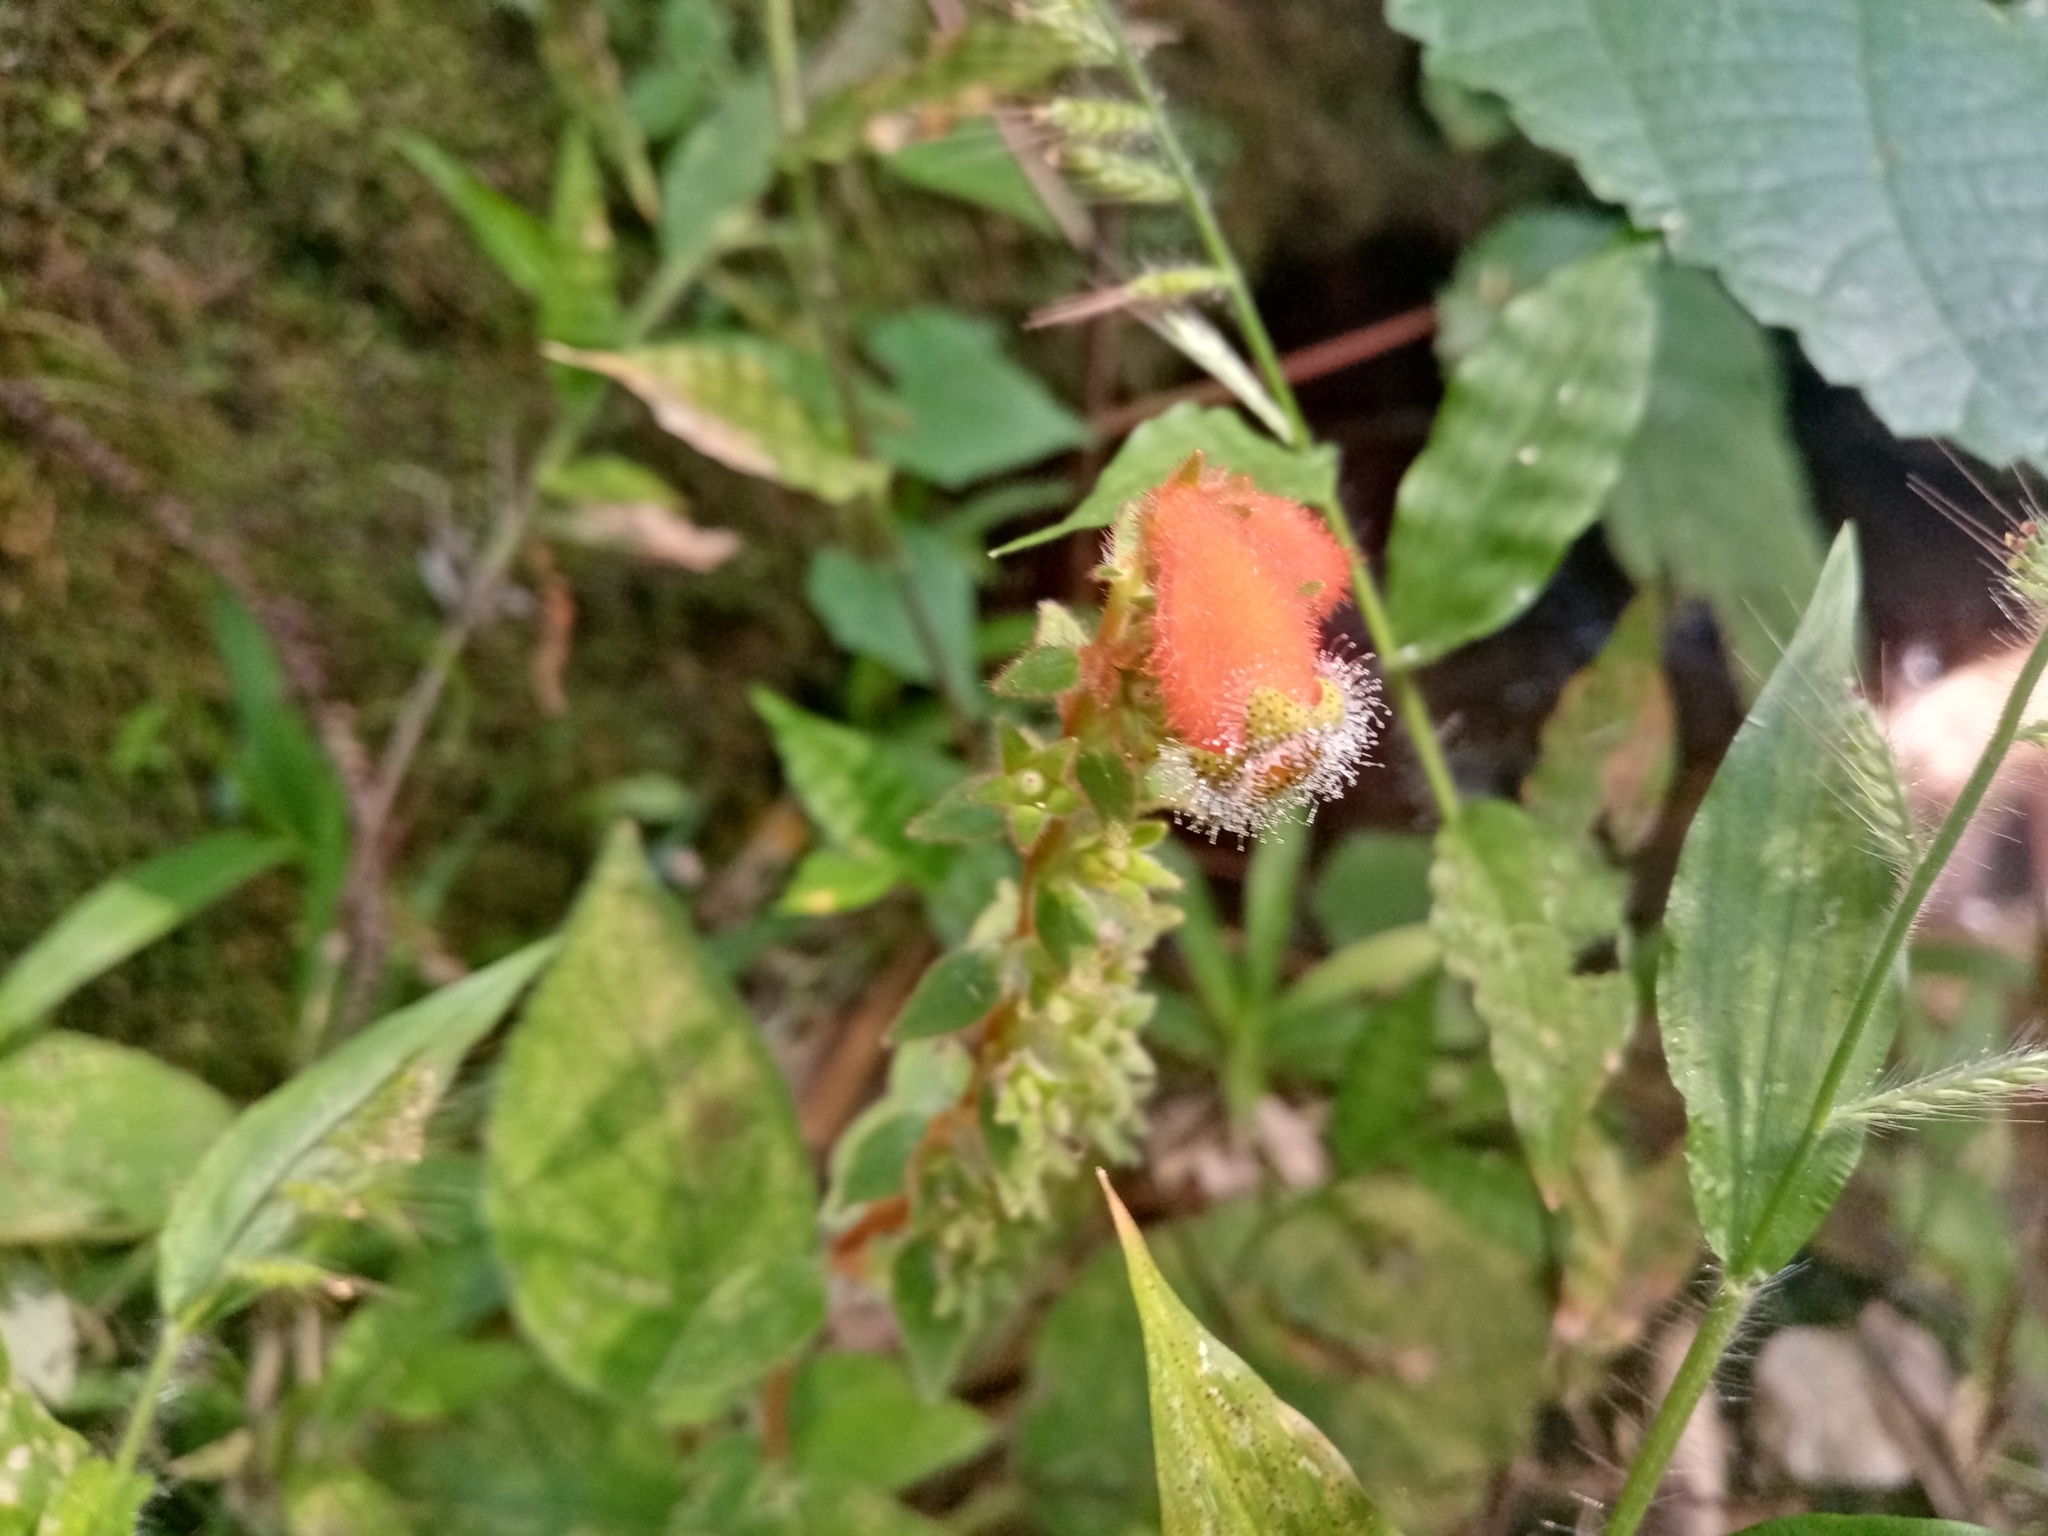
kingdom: Plantae
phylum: Tracheophyta
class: Magnoliopsida
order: Lamiales
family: Gesneriaceae
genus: Kohleria
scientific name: Kohleria stuebeliana
